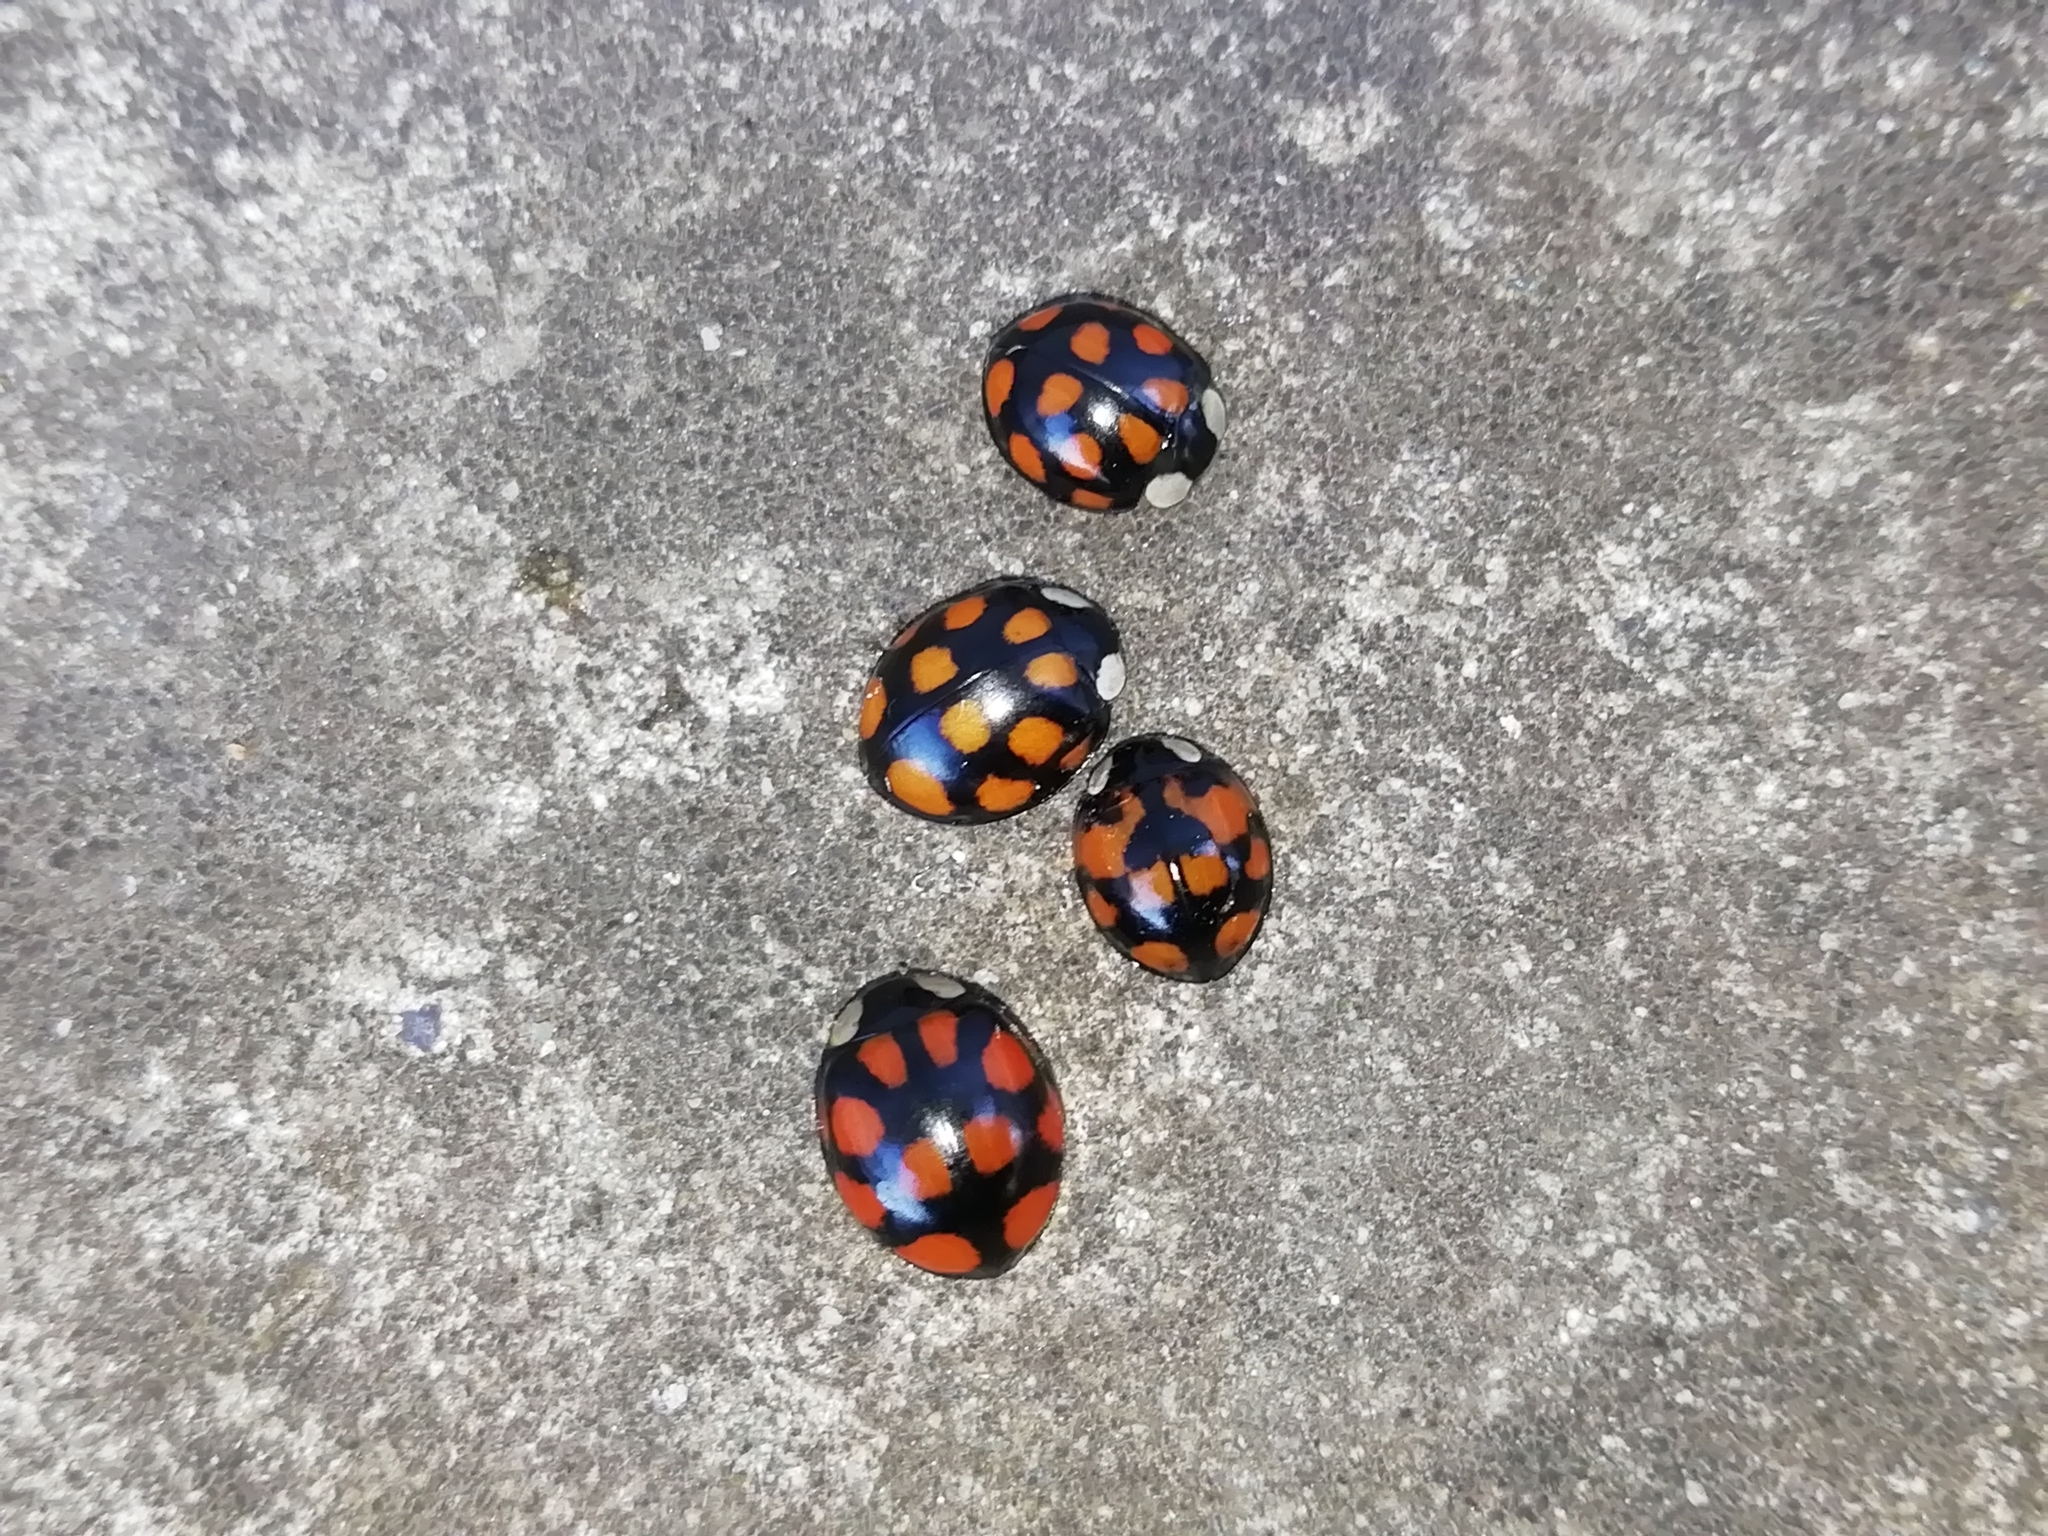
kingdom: Animalia
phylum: Arthropoda
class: Insecta
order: Coleoptera
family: Coccinellidae
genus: Harmonia
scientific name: Harmonia axyridis
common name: Harlequin ladybird
